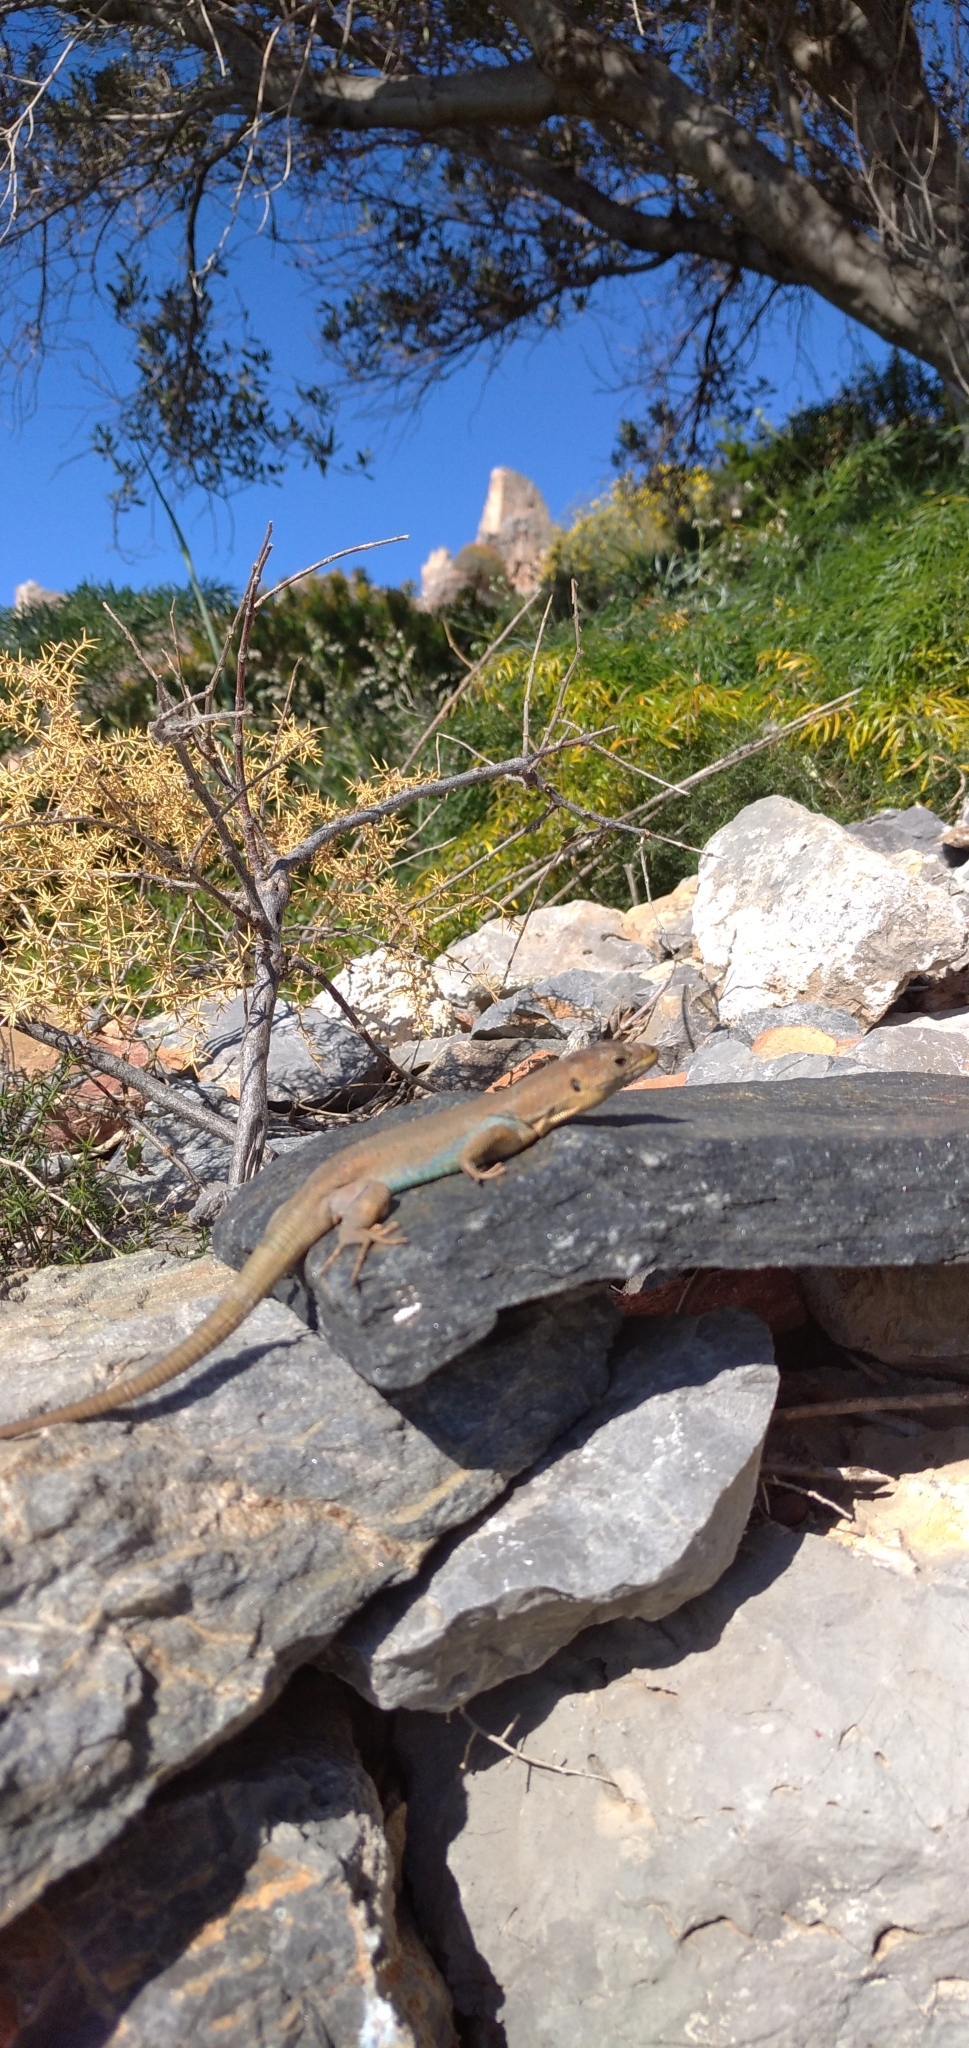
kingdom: Animalia
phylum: Chordata
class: Squamata
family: Lacertidae
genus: Podarcis
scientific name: Podarcis peloponnesiacus
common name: Peloponnese wall lizard
